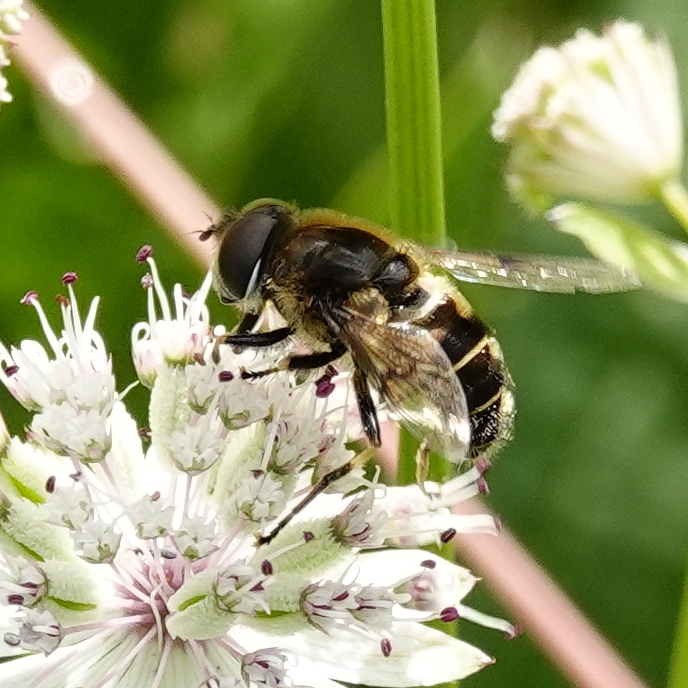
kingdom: Animalia
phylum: Arthropoda
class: Insecta
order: Diptera
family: Syrphidae
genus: Eristalis
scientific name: Eristalis rupium
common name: Hover fly
